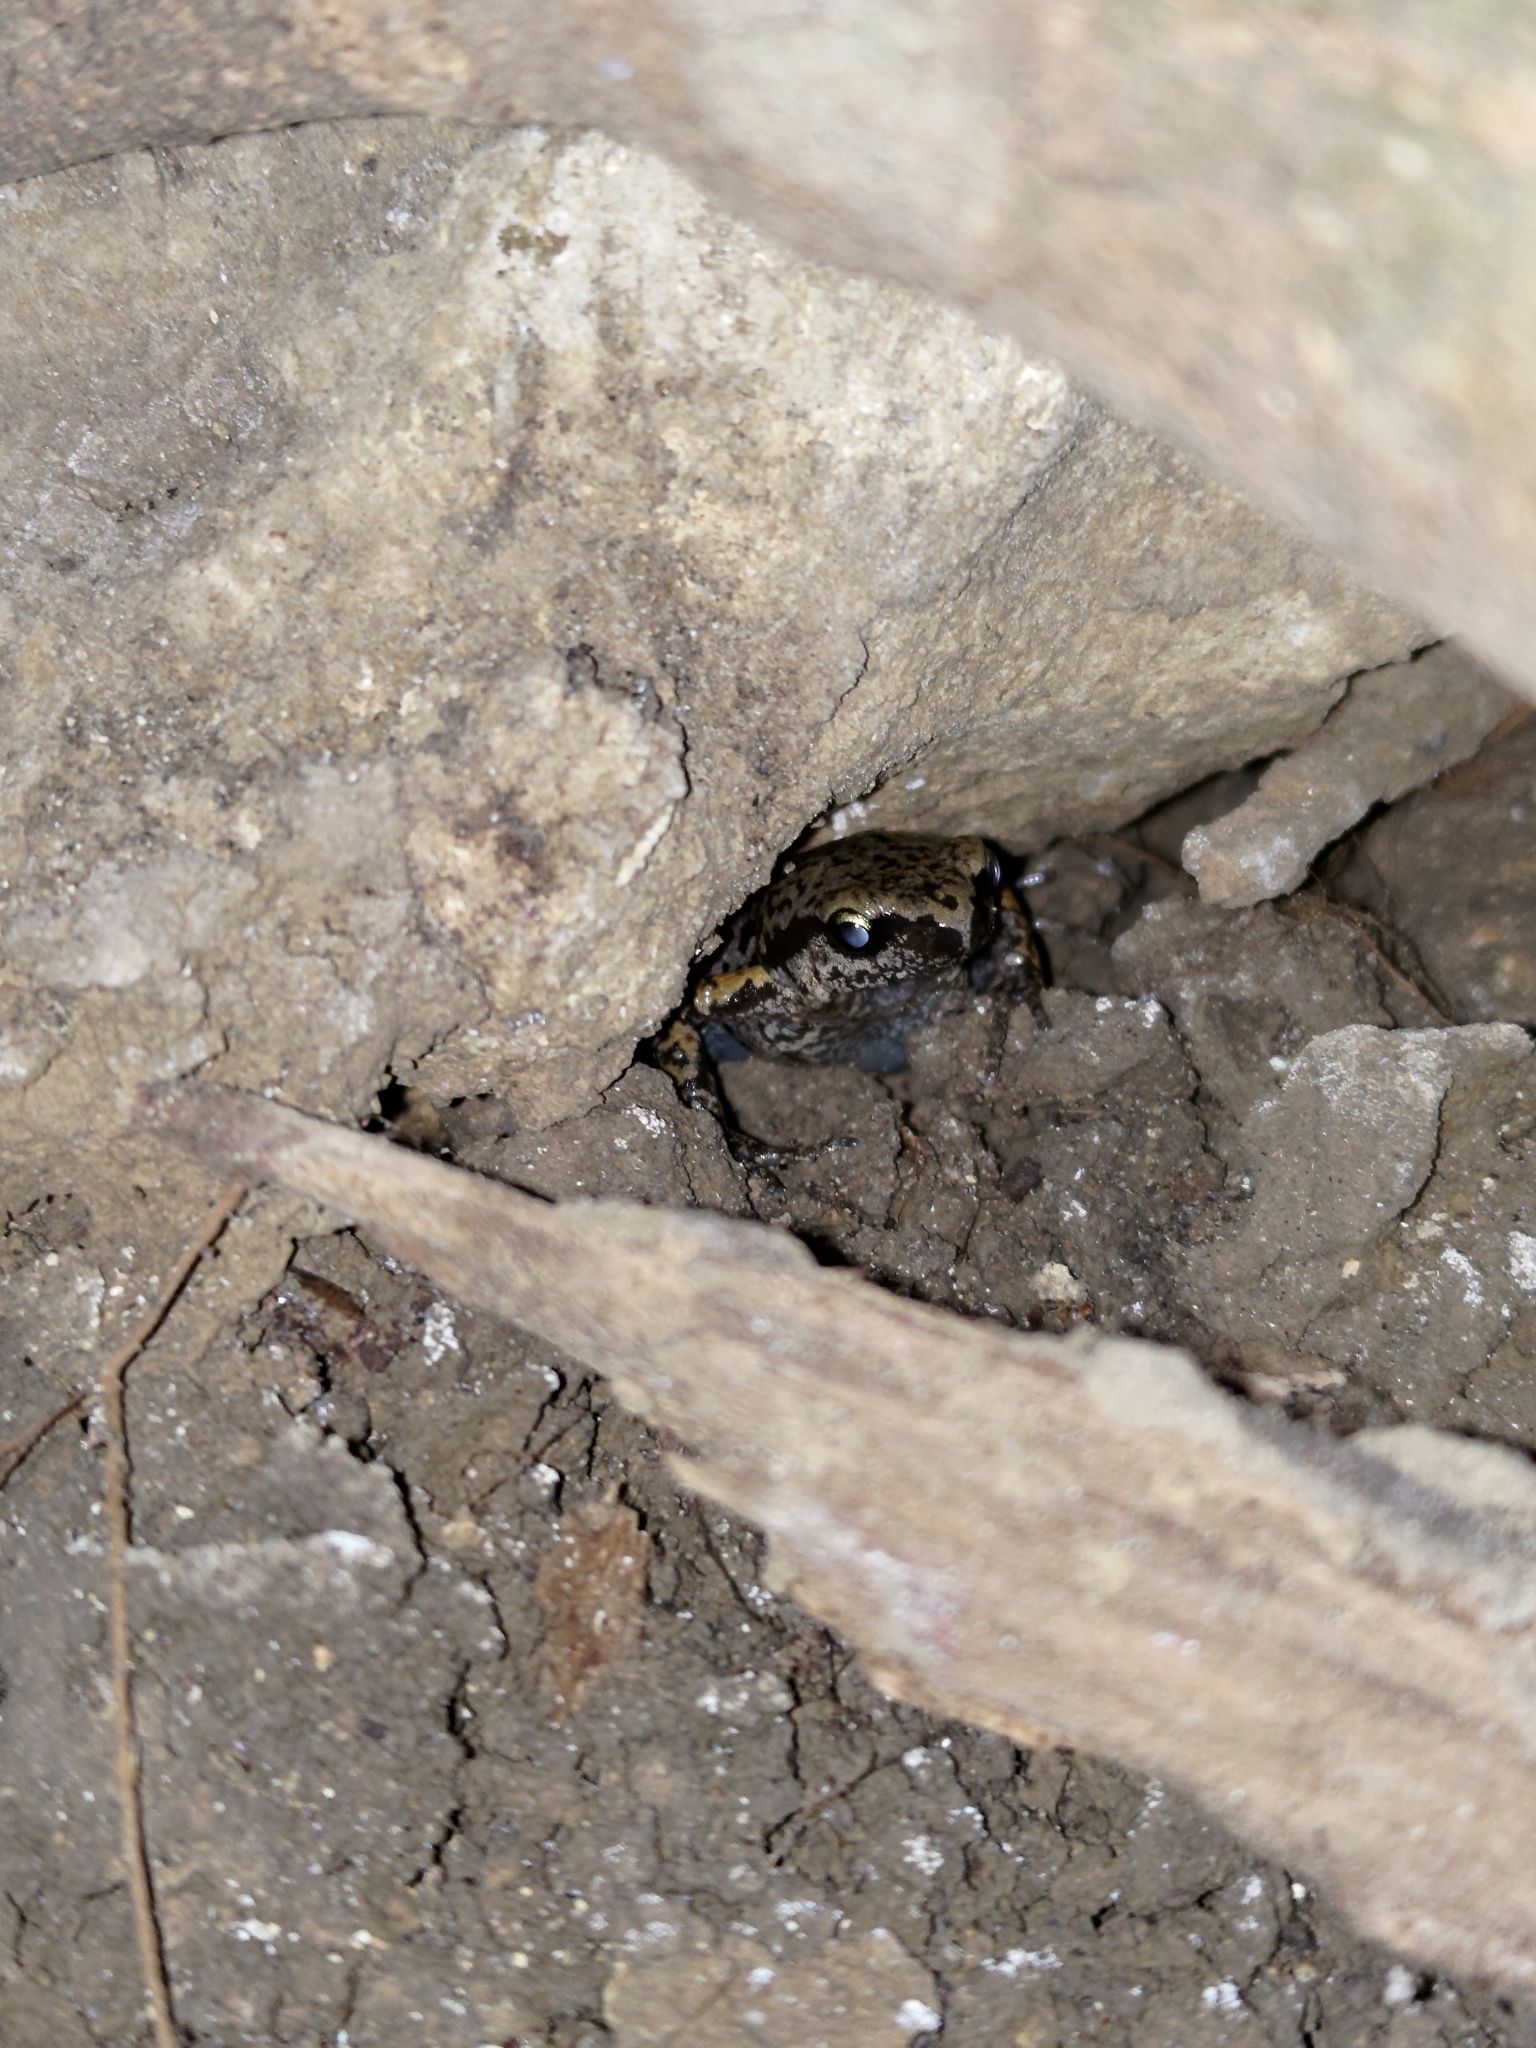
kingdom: Animalia
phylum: Chordata
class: Amphibia
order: Anura
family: Microhylidae
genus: Micryletta
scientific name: Micryletta steinegeri
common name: Stejneger's paddy frog
